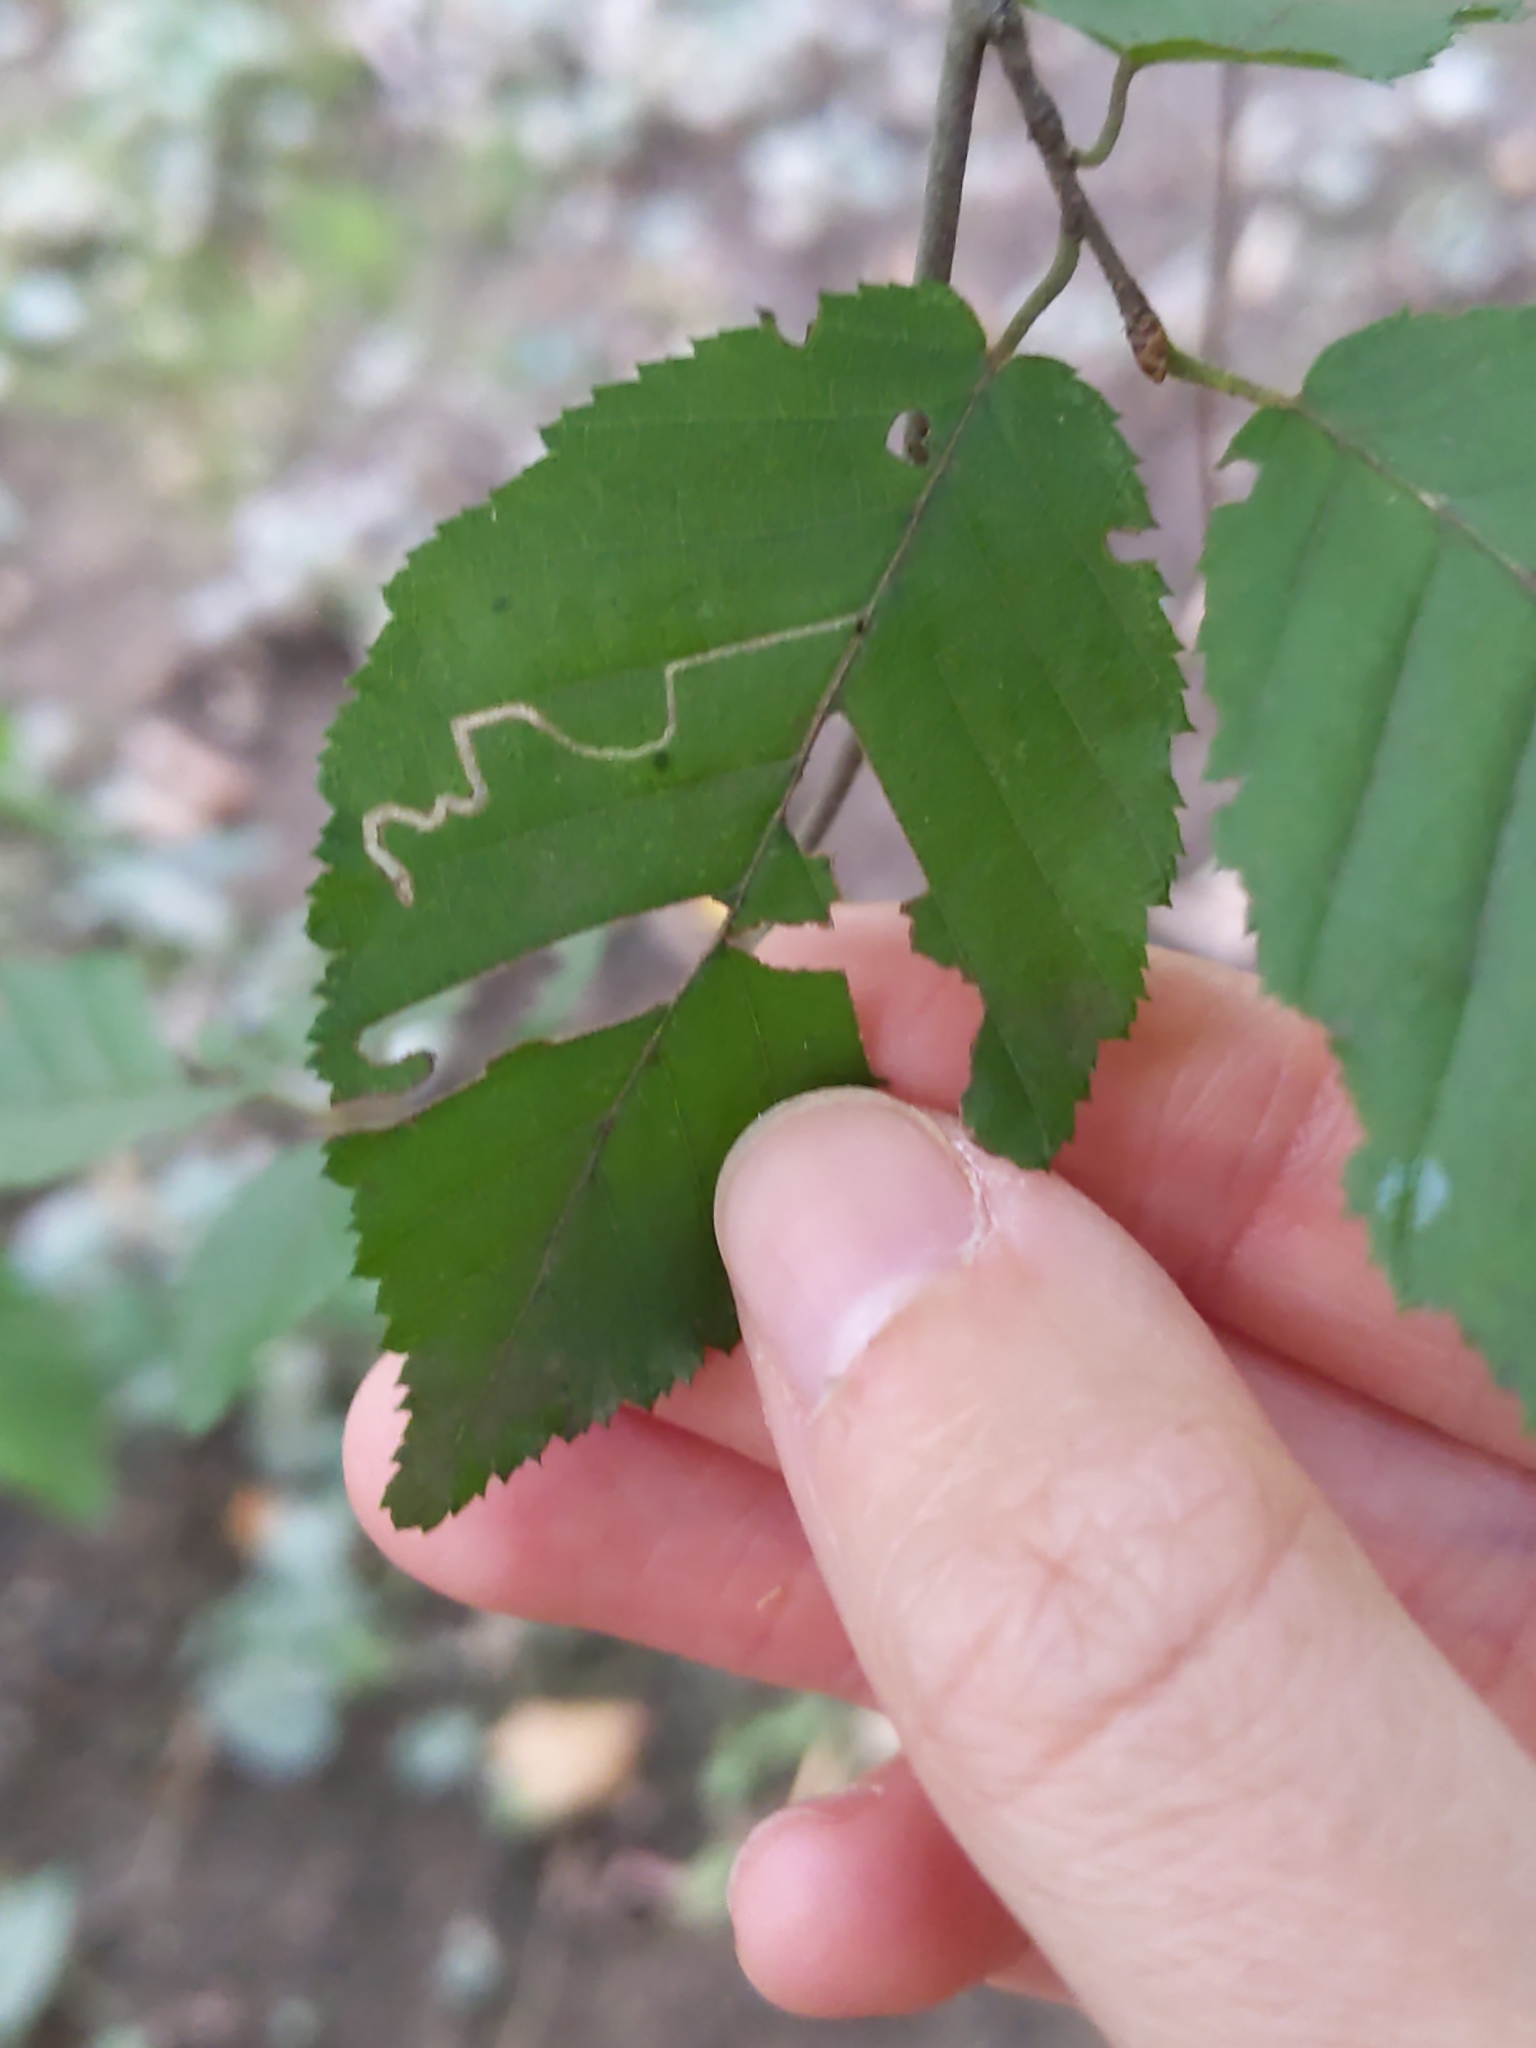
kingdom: Animalia
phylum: Arthropoda
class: Insecta
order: Lepidoptera
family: Nepticulidae
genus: Stigmella
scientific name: Stigmella
